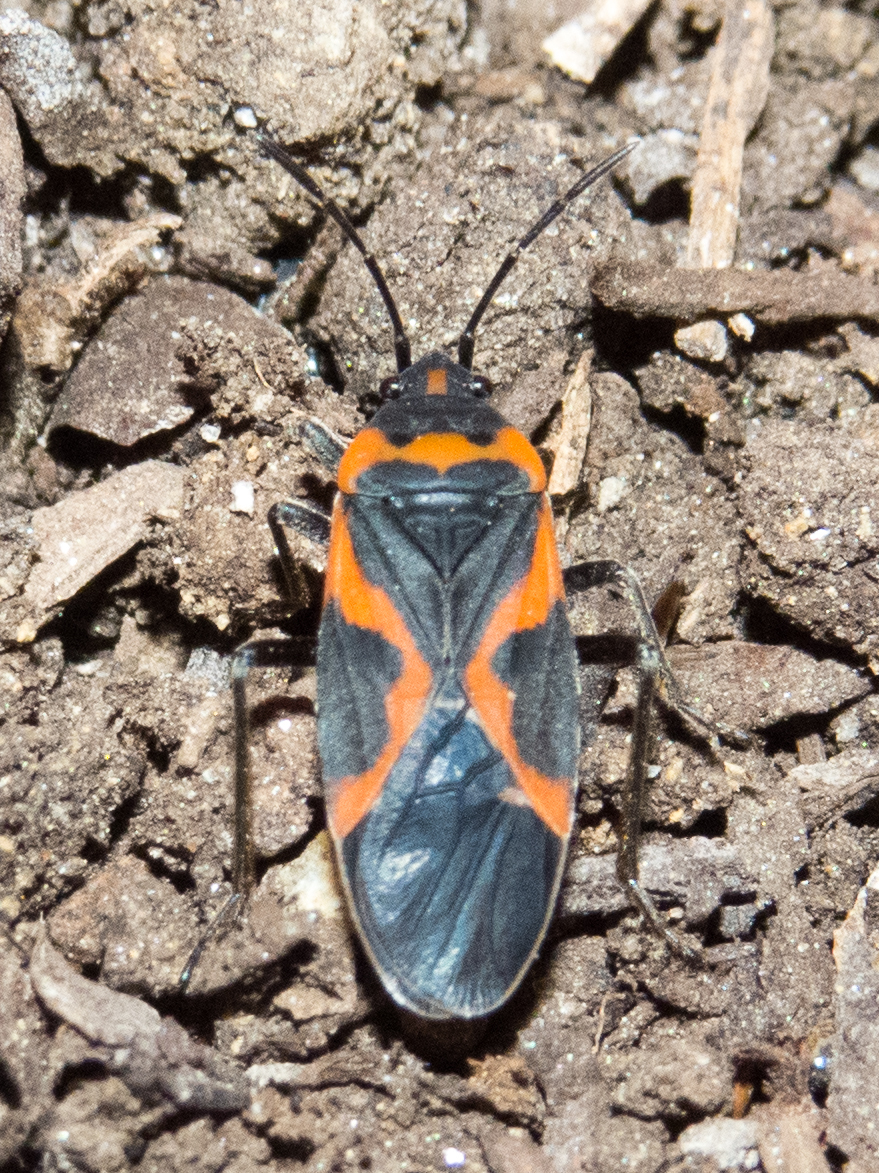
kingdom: Animalia
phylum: Arthropoda
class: Insecta
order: Hemiptera
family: Lygaeidae
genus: Lygaeus
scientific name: Lygaeus kalmii
